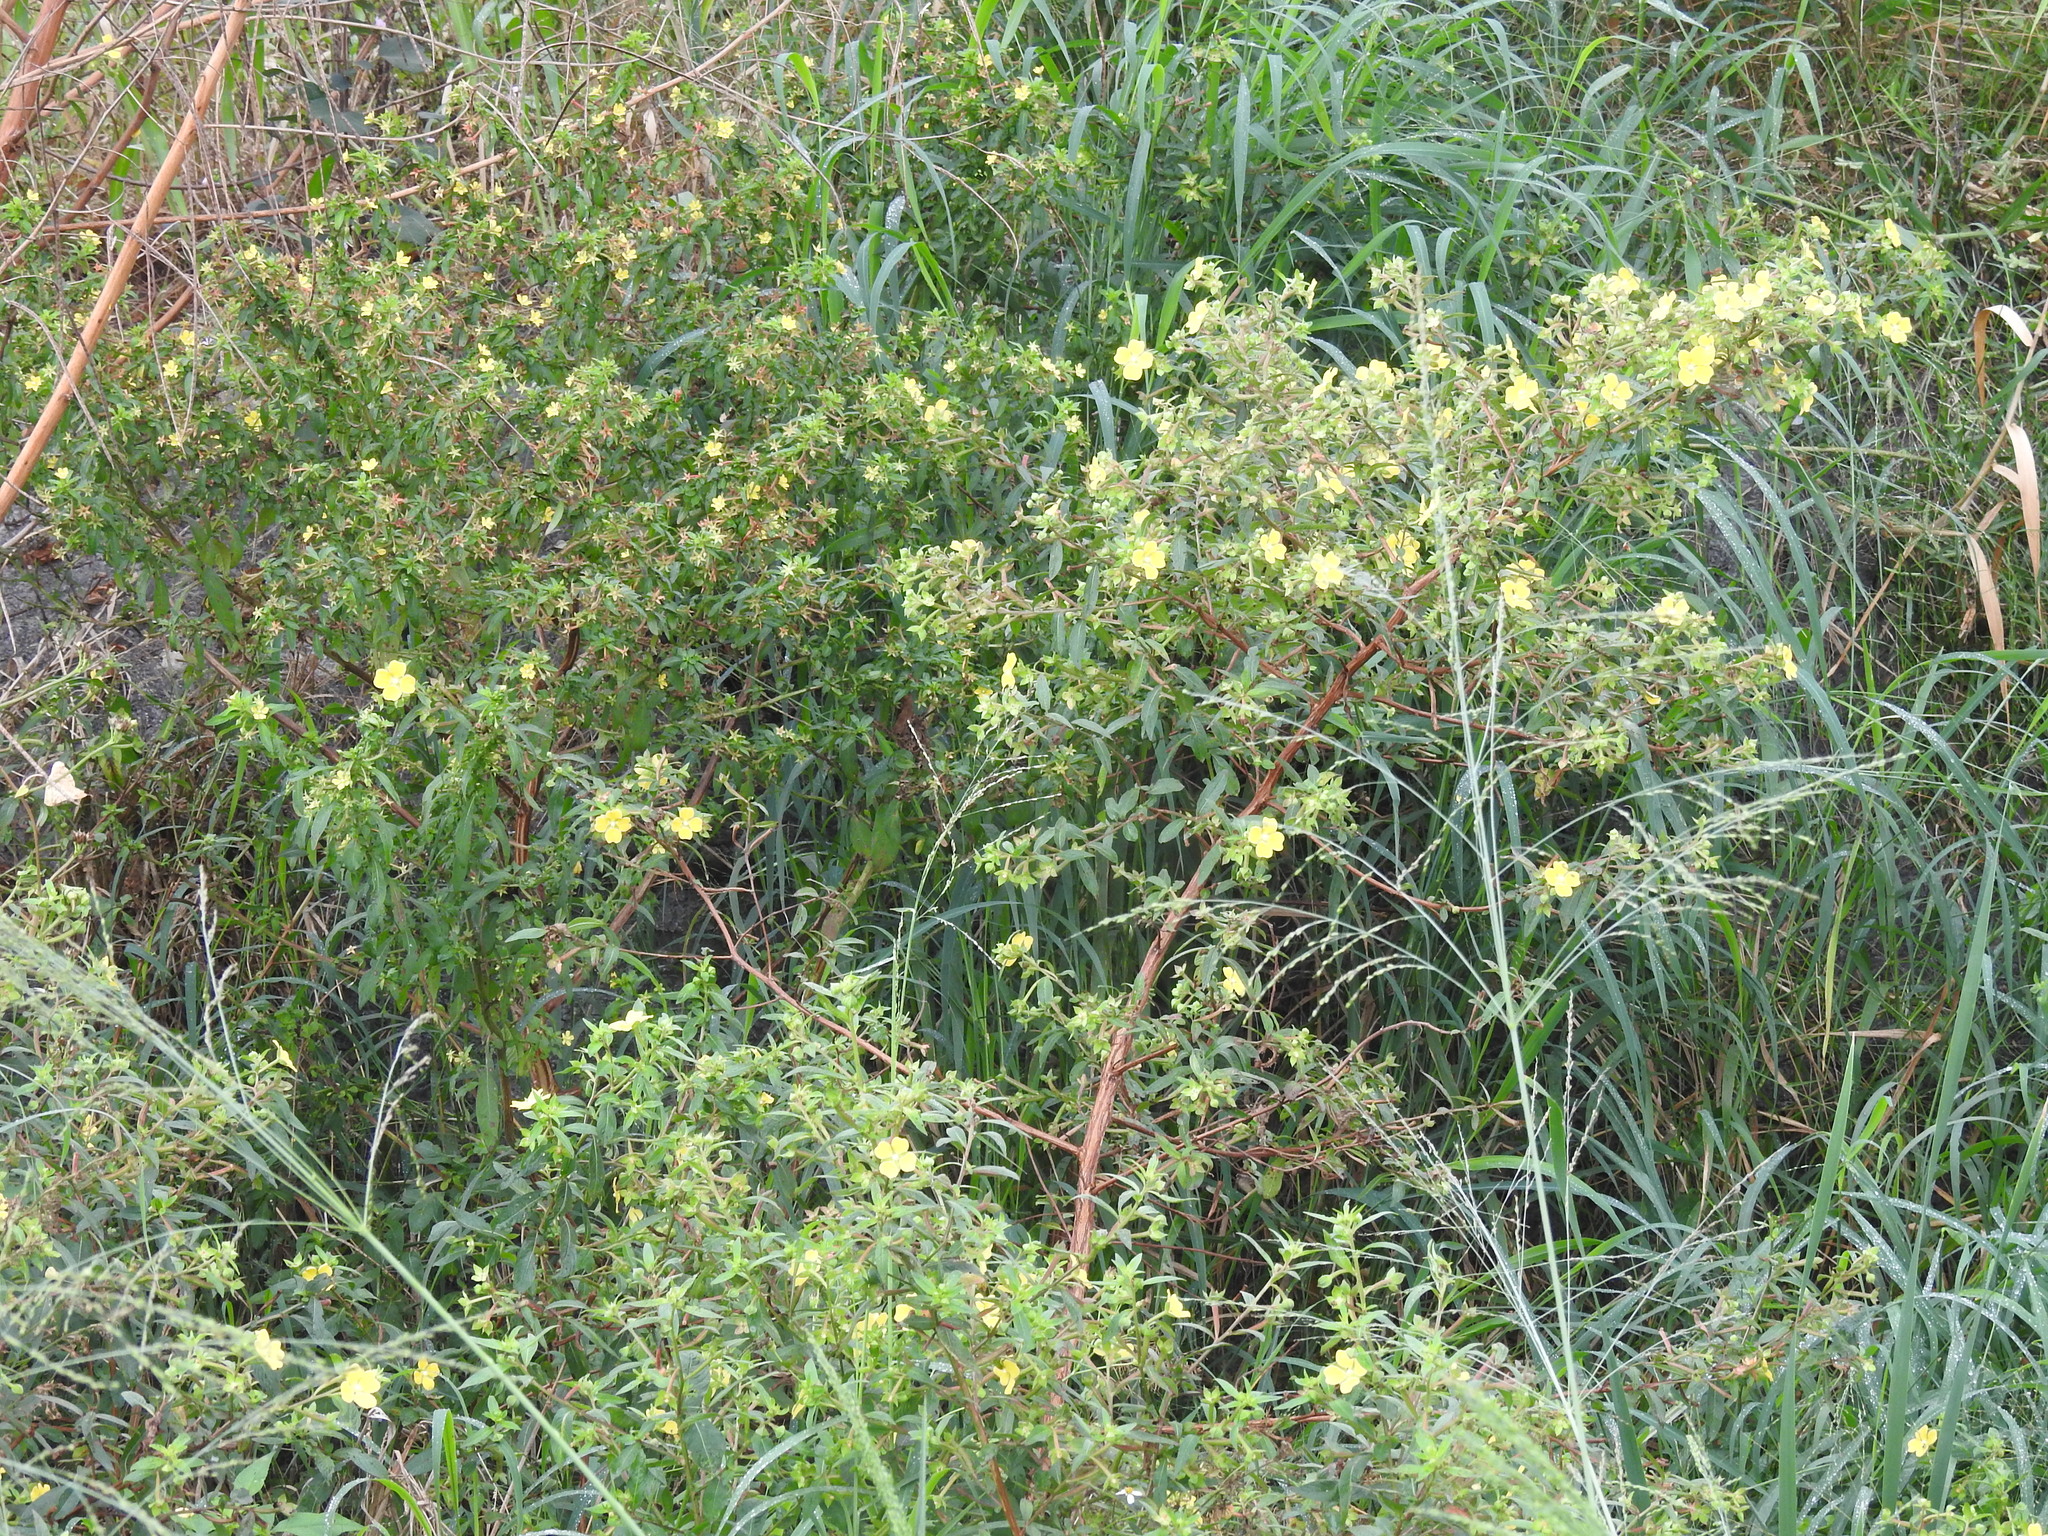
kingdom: Plantae
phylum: Tracheophyta
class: Magnoliopsida
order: Myrtales
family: Onagraceae
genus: Ludwigia
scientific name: Ludwigia octovalvis
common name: Water-primrose
